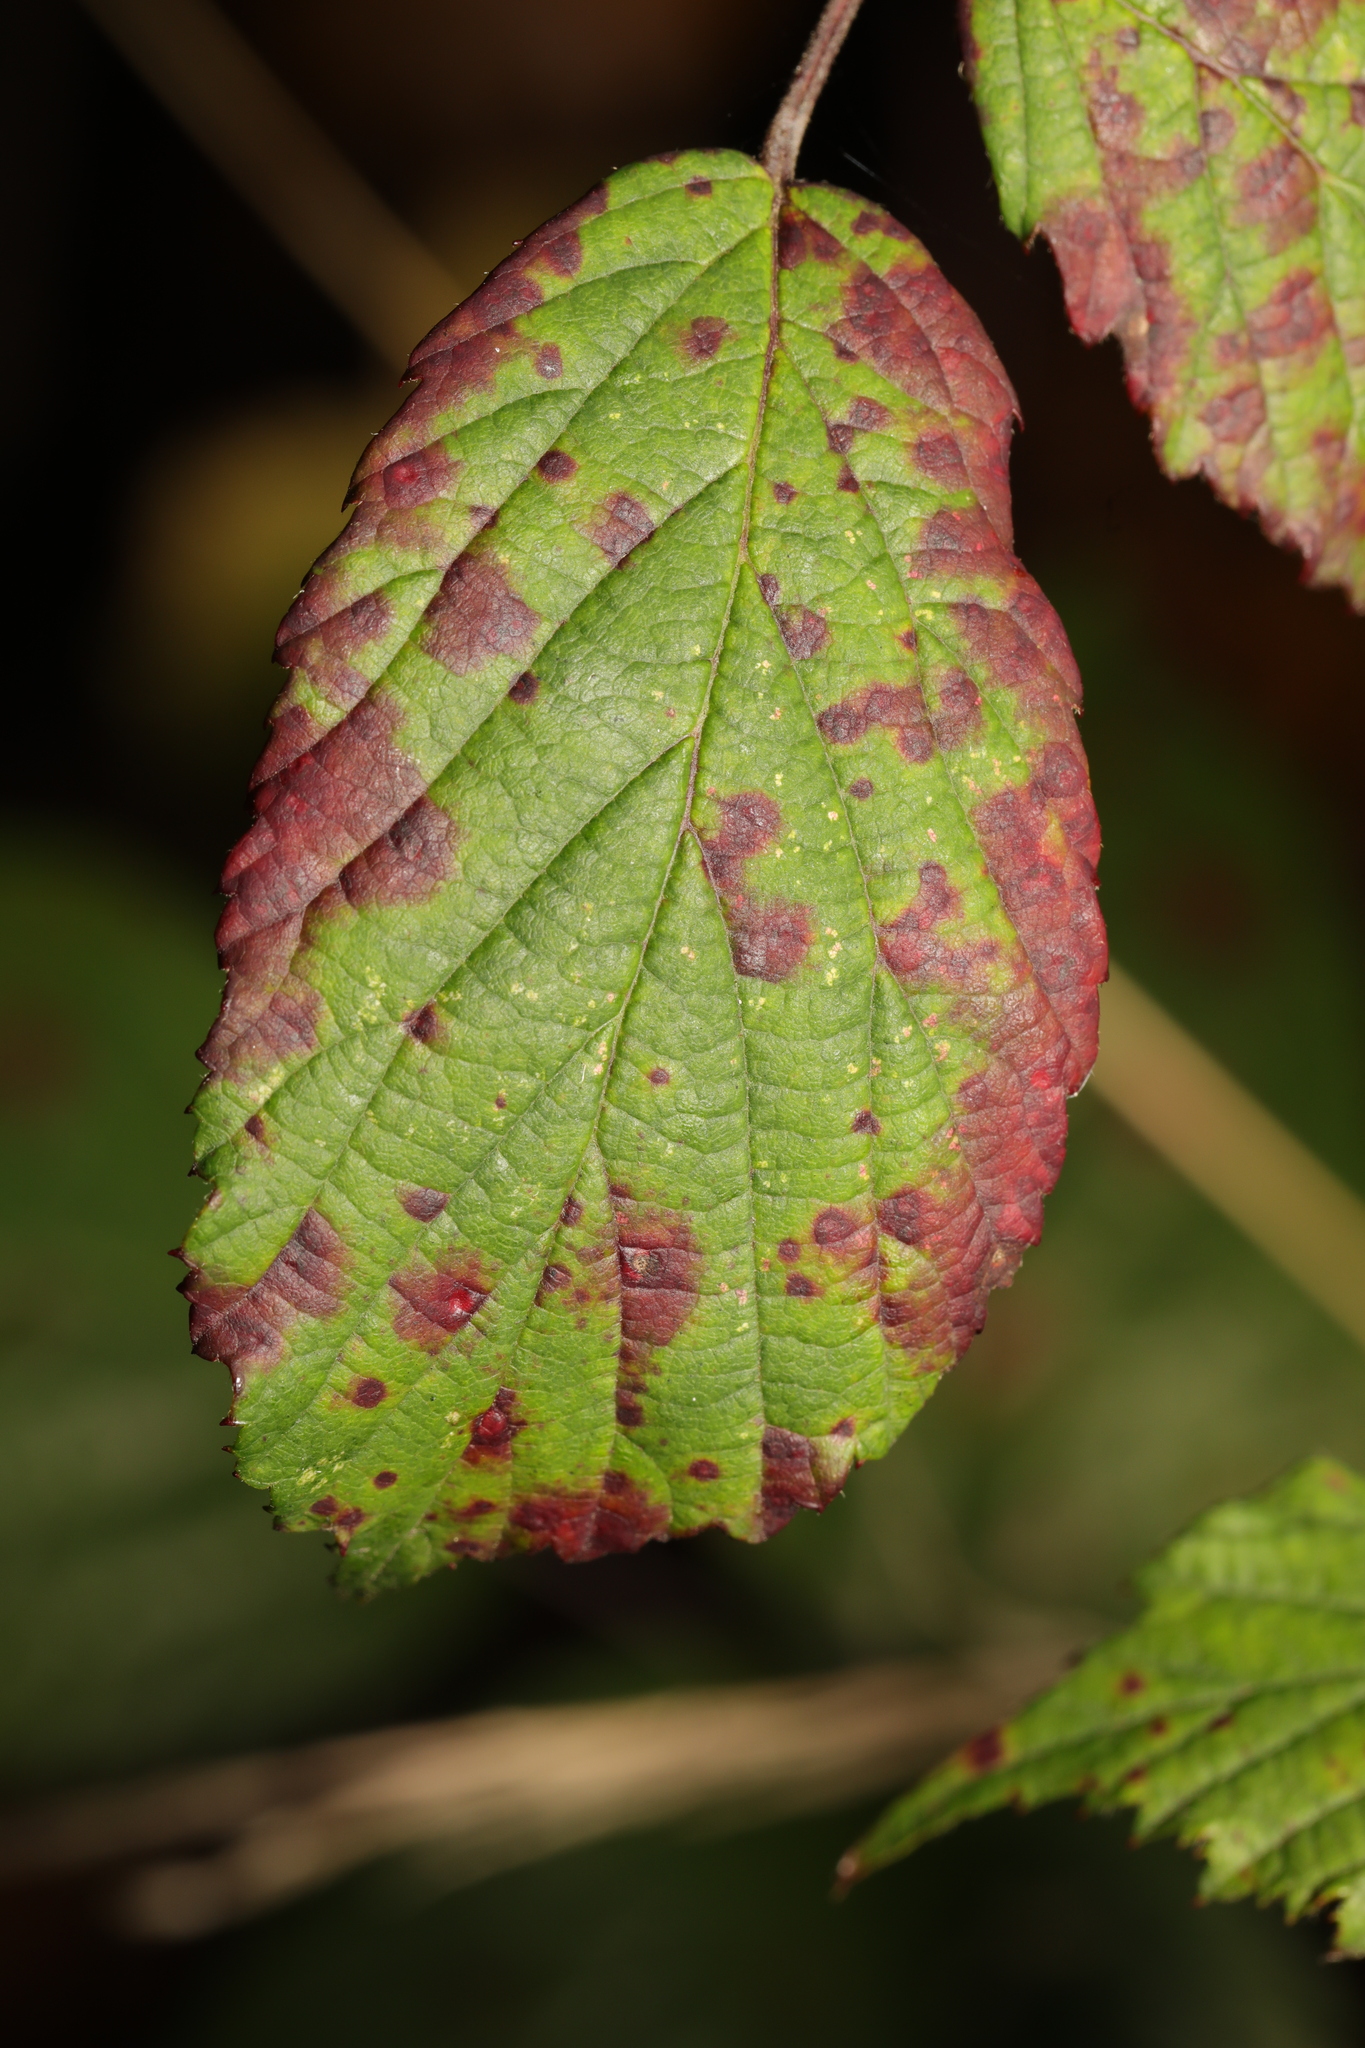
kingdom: Fungi
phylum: Basidiomycota
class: Pucciniomycetes
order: Pucciniales
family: Phragmidiaceae
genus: Phragmidium
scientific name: Phragmidium violaceum
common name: Violet bramble rust
